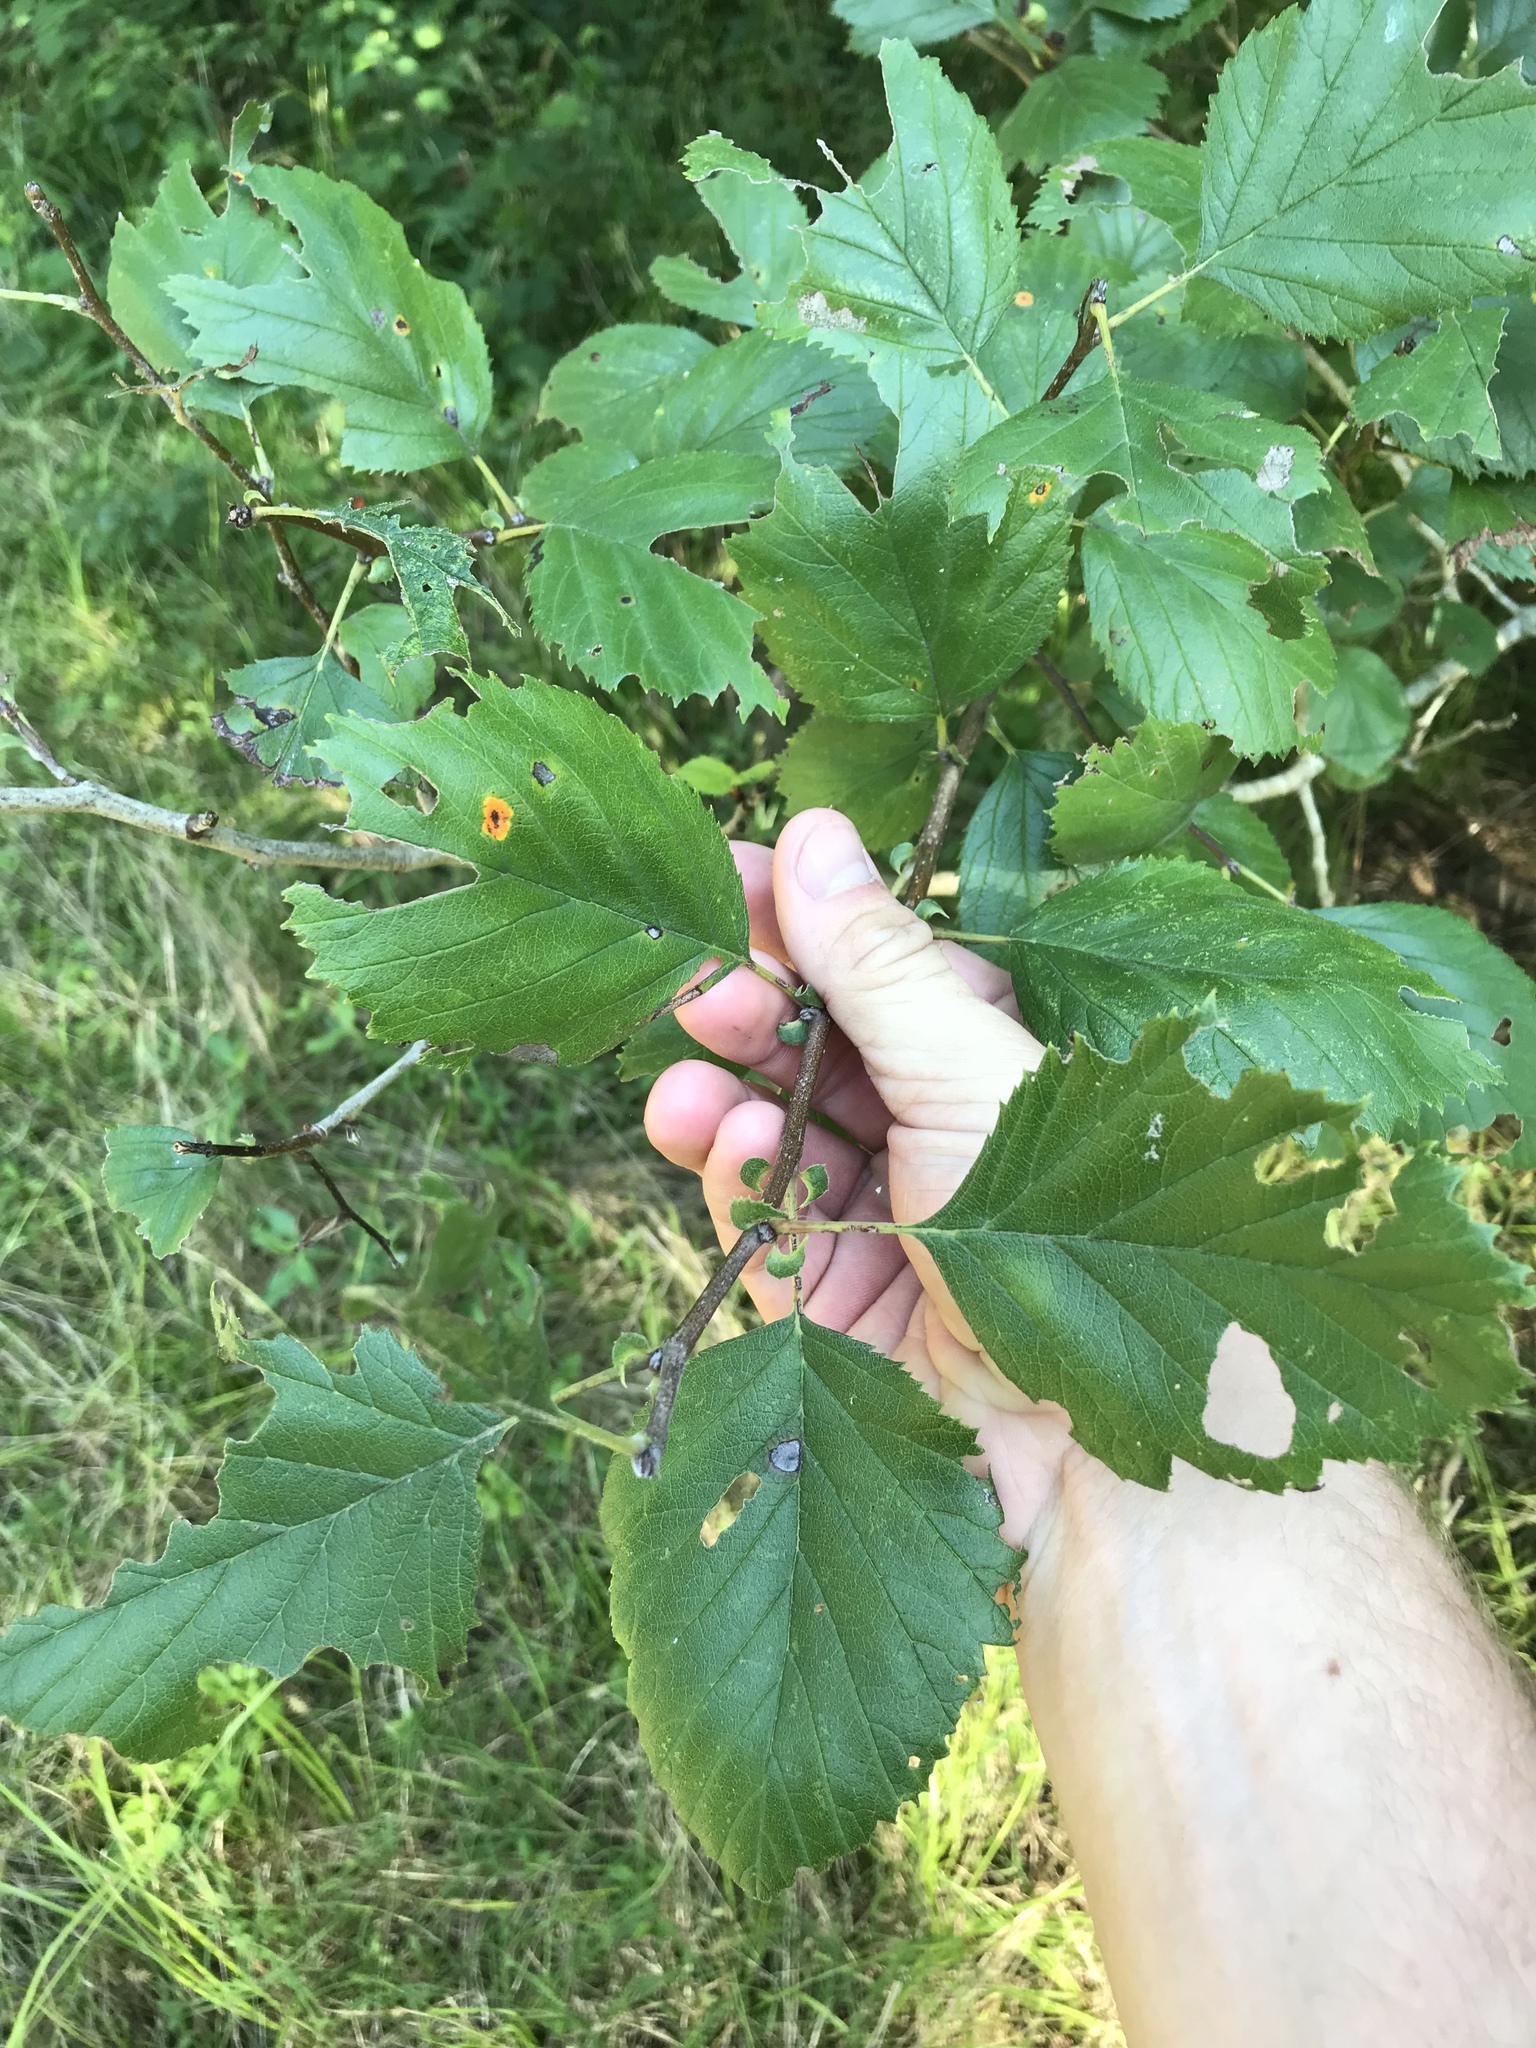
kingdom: Plantae
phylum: Tracheophyta
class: Magnoliopsida
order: Rosales
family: Rosaceae
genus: Crataegus
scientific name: Crataegus mollis
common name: Downy hawthorn
